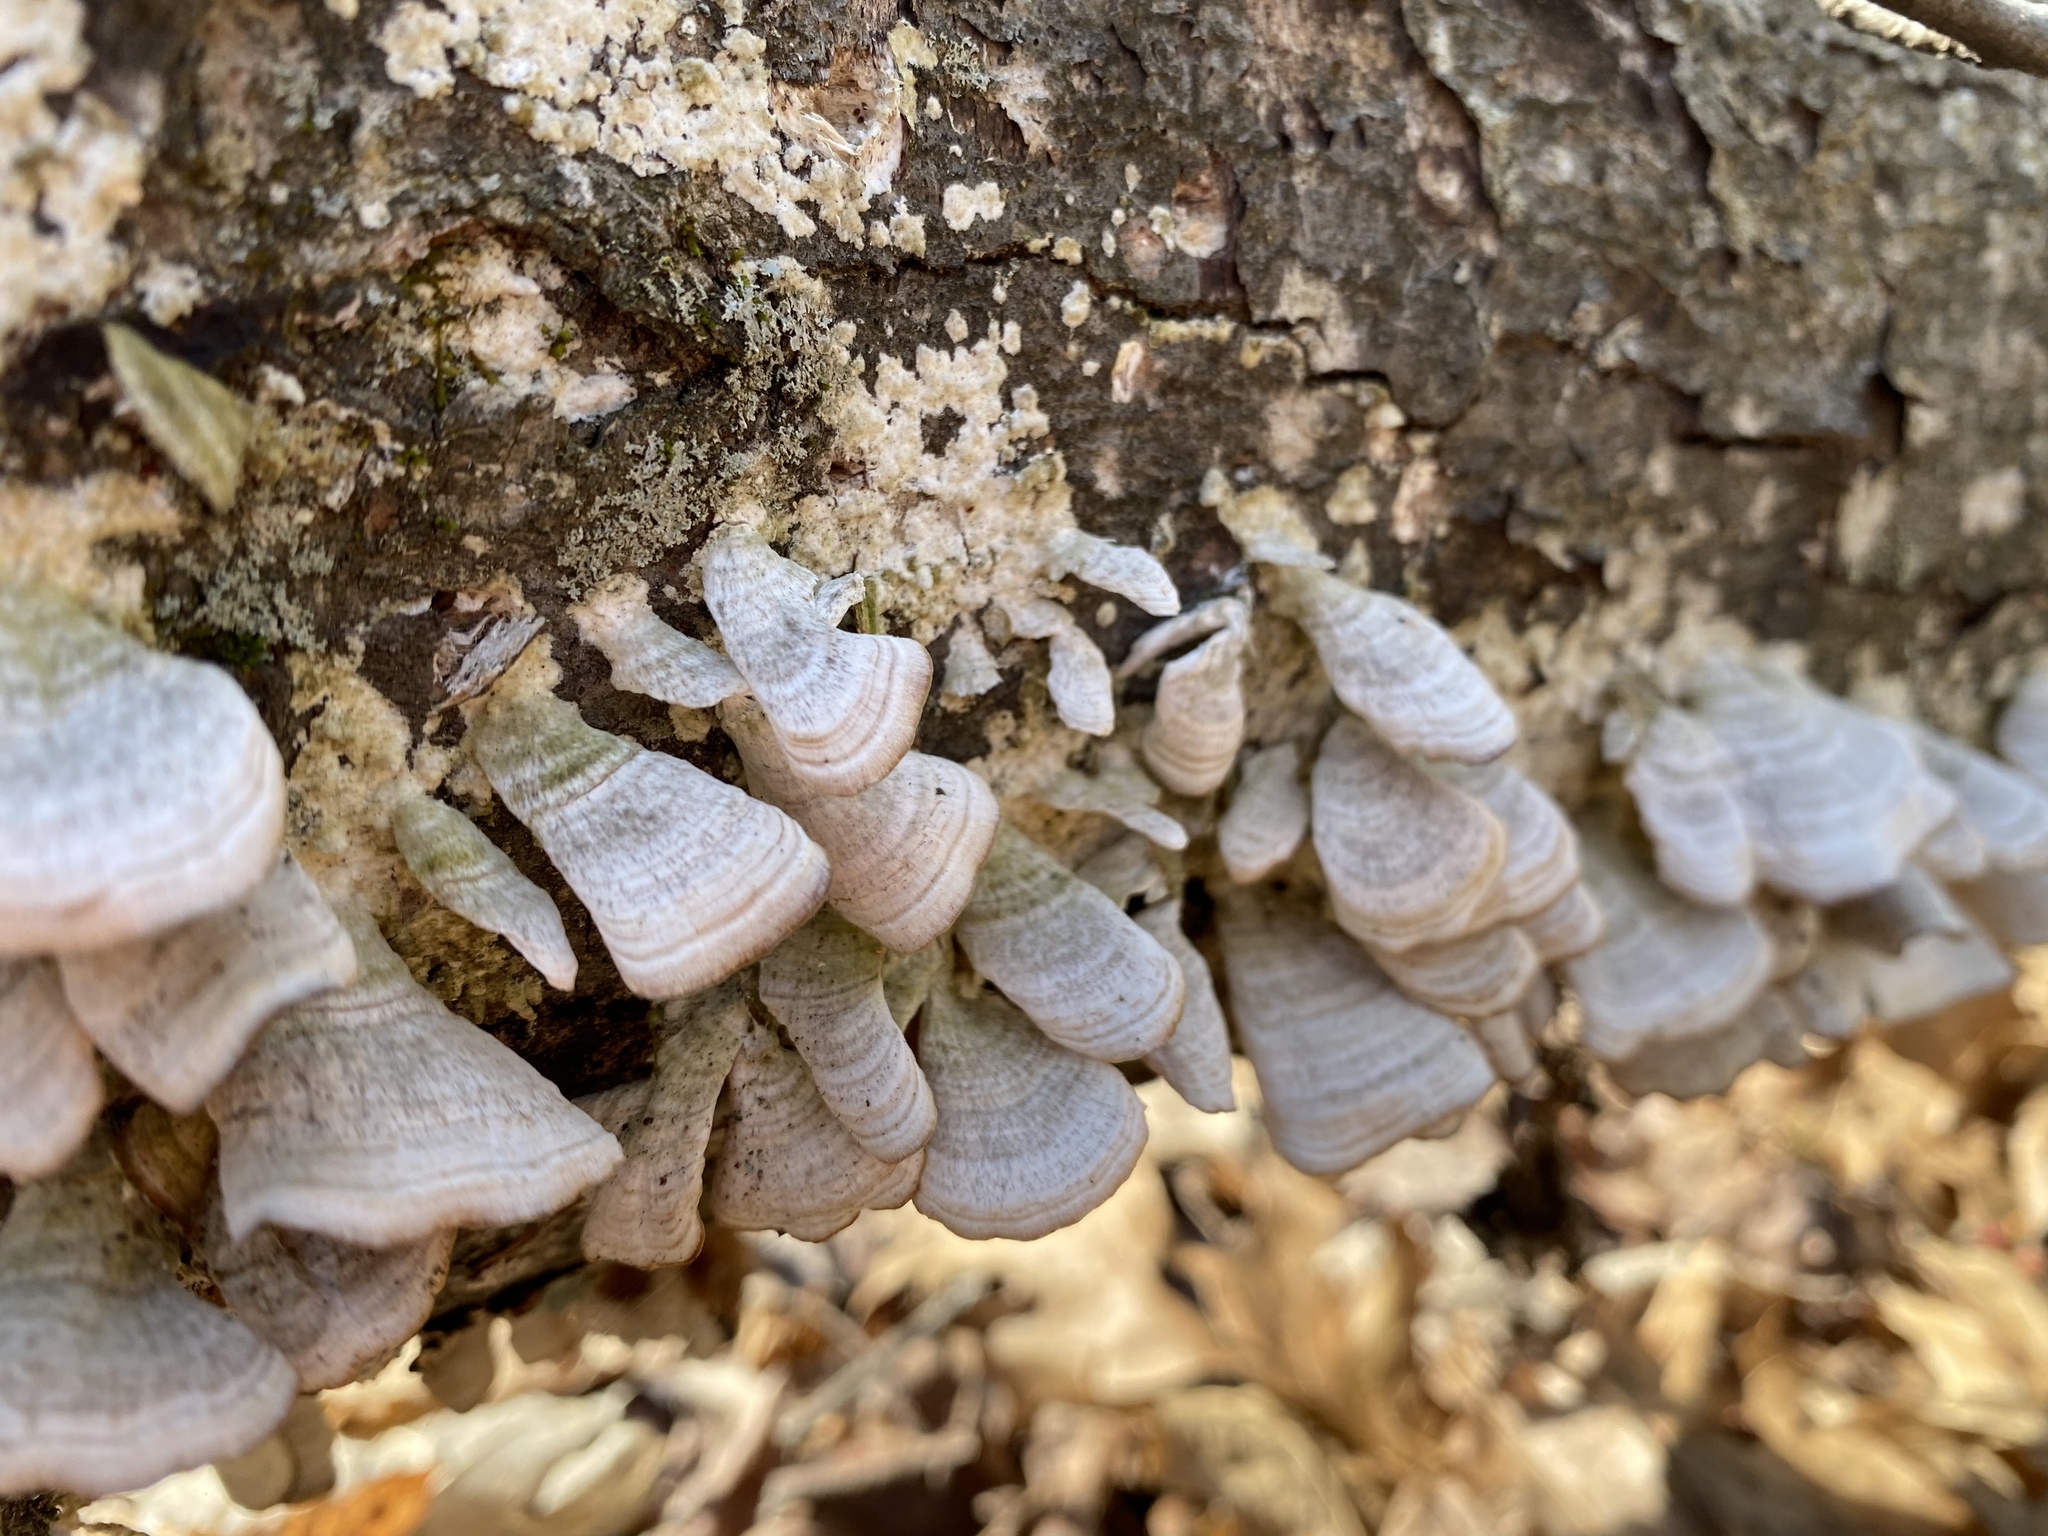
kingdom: Fungi
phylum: Basidiomycota
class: Agaricomycetes
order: Hymenochaetales
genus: Trichaptum
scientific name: Trichaptum abietinum
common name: Purplepore bracket
